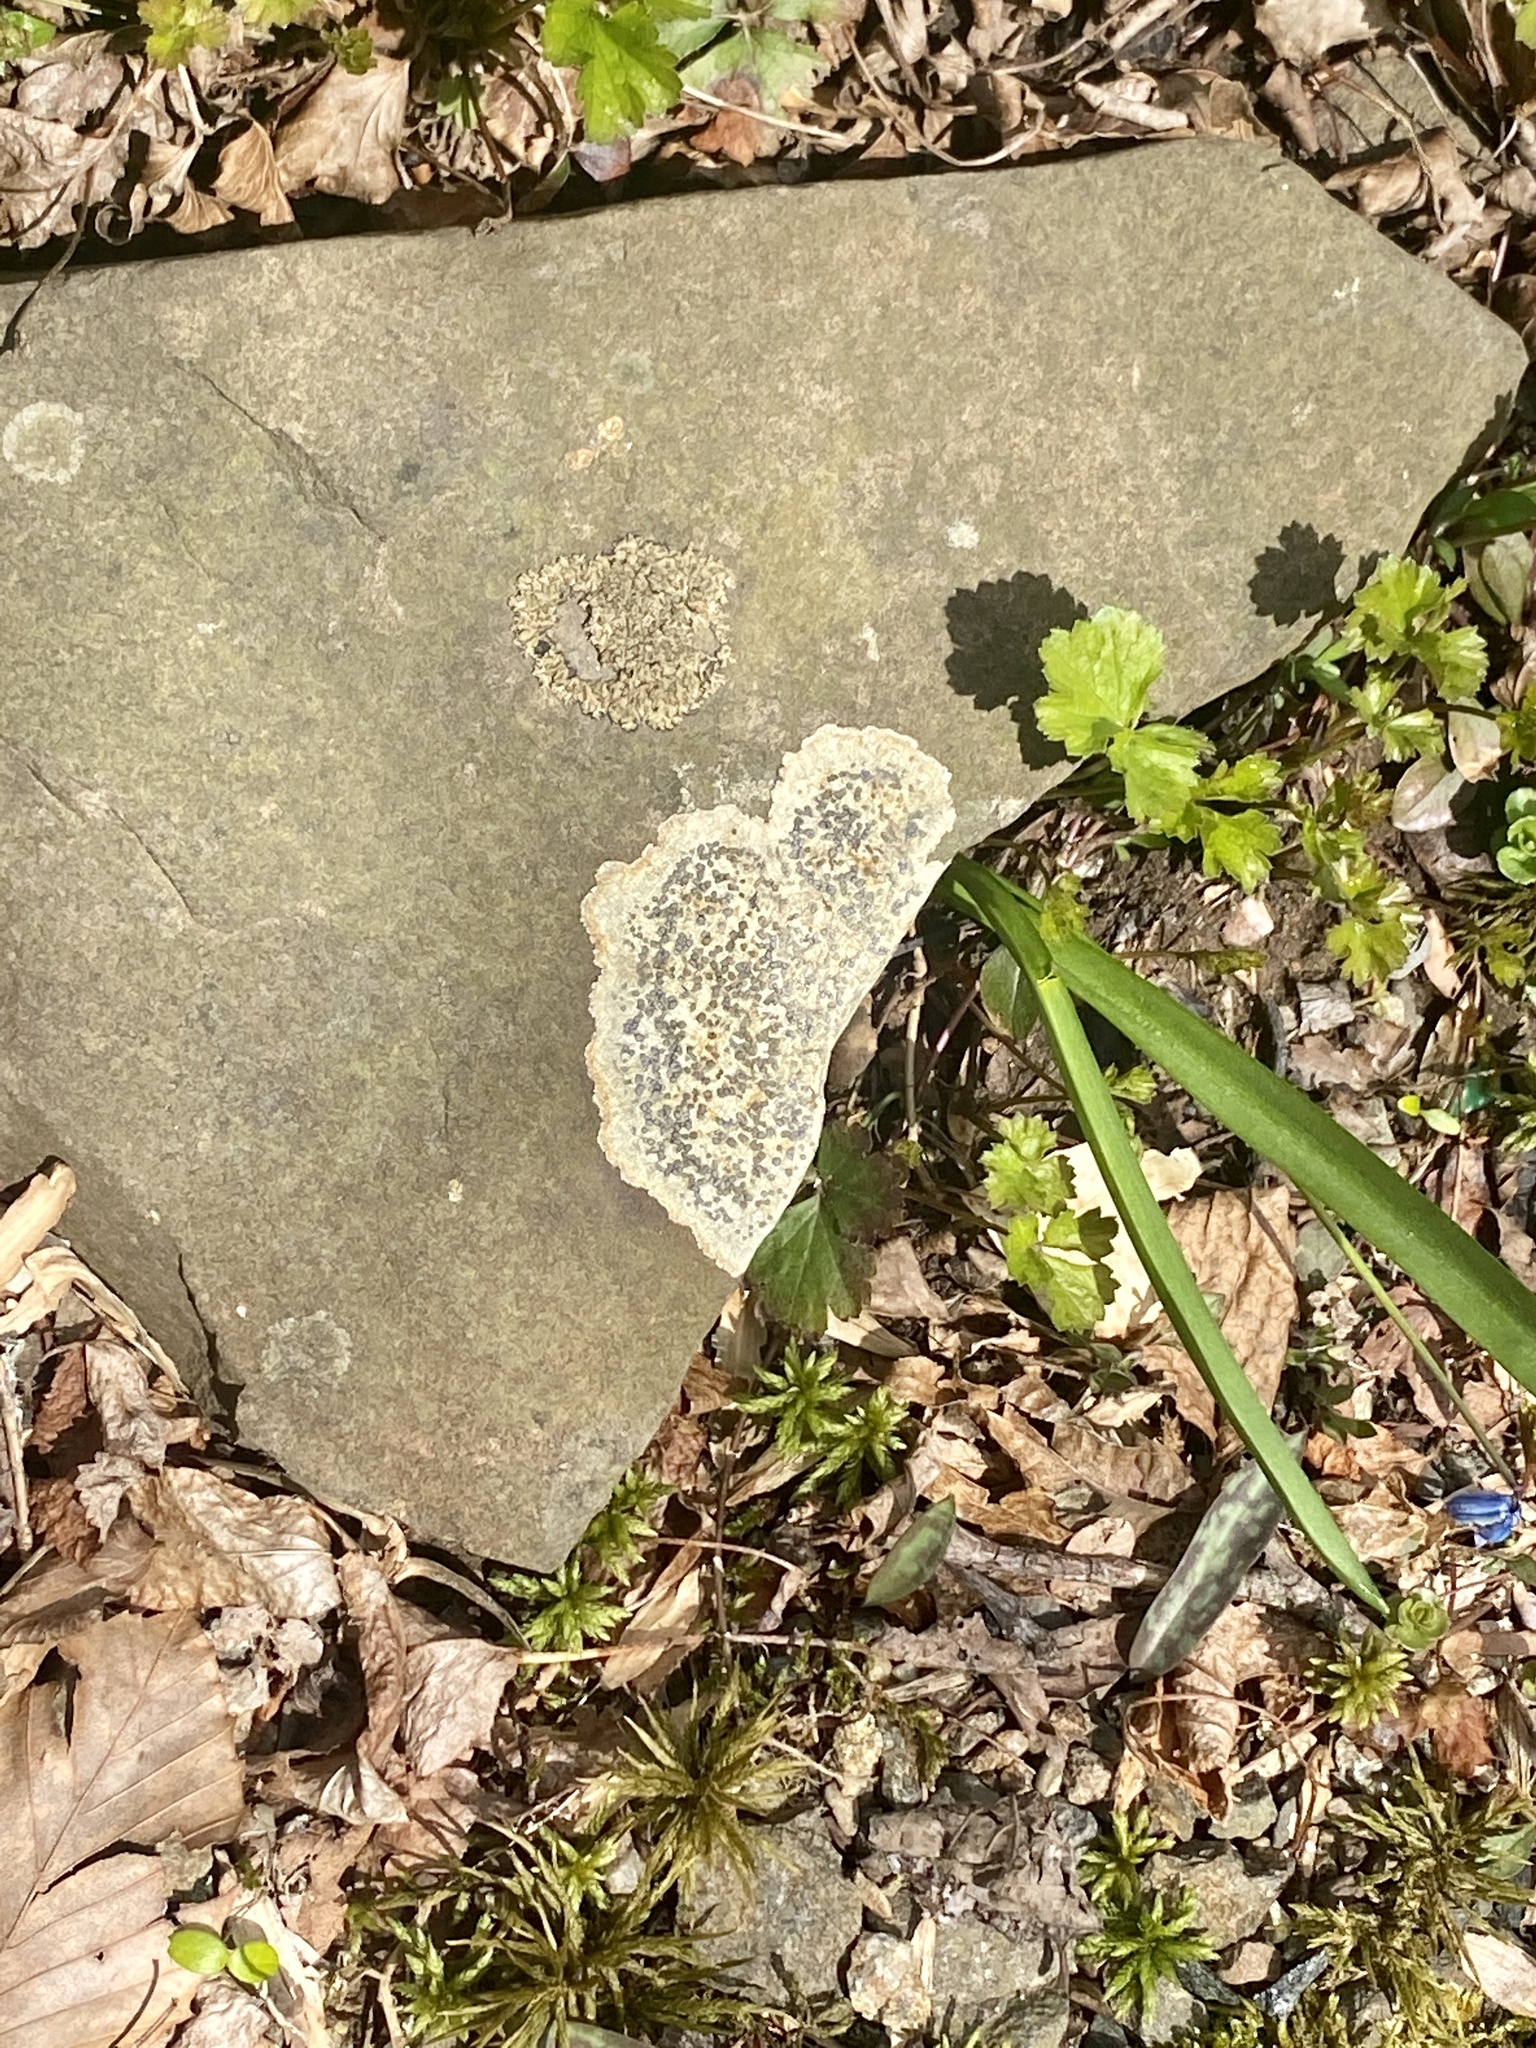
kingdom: Fungi
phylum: Ascomycota
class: Lecanoromycetes
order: Lecideales
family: Lecideaceae
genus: Porpidia
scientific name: Porpidia albocaerulescens
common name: Smokey-eyed boulder lichen
